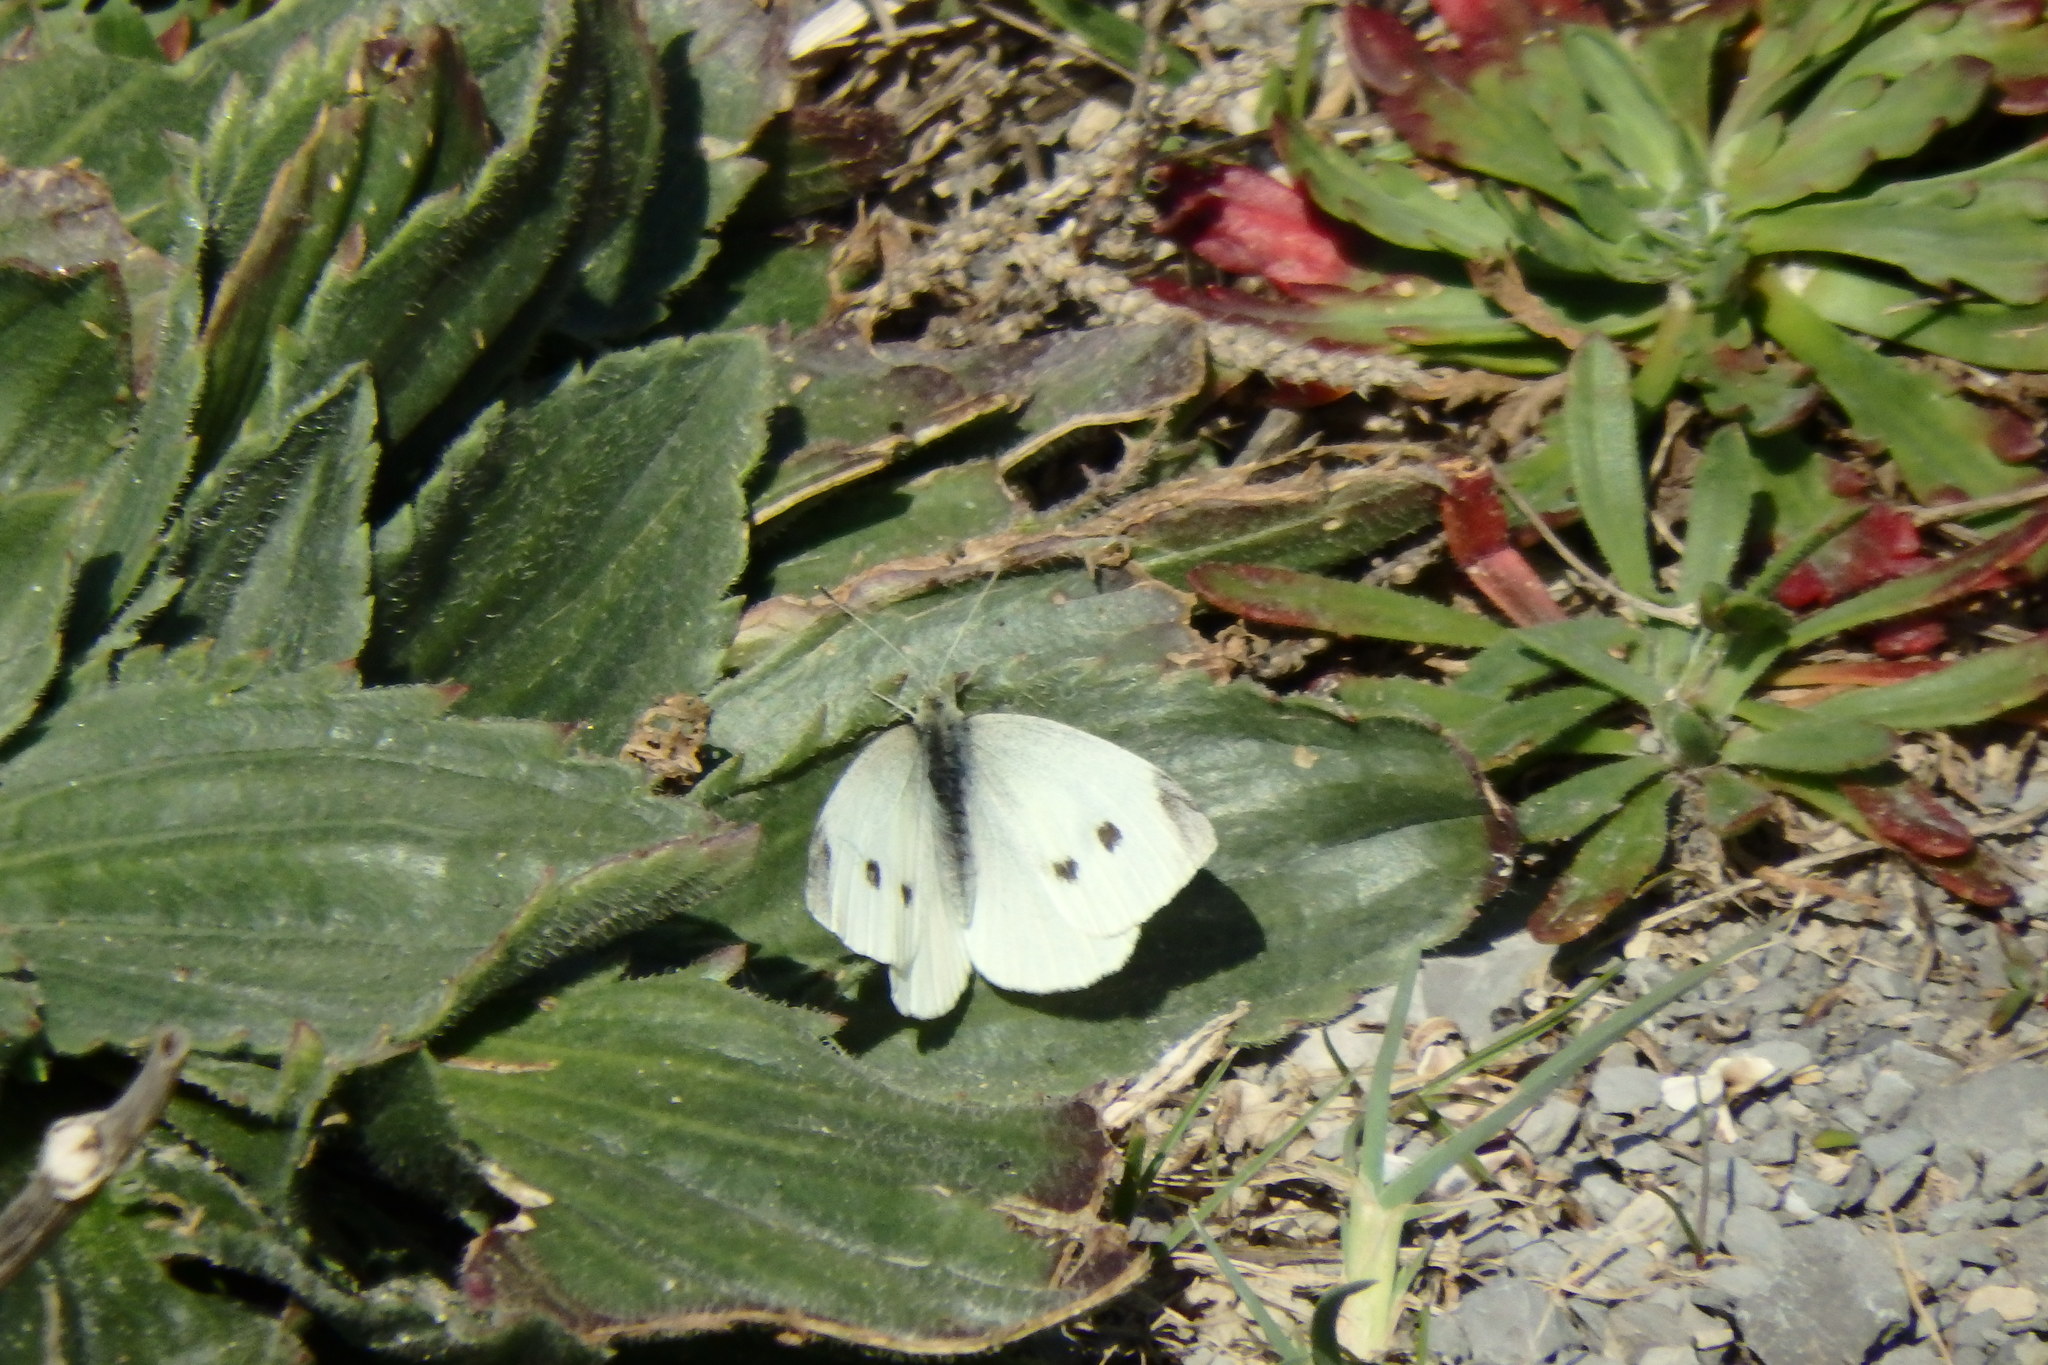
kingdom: Animalia
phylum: Arthropoda
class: Insecta
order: Lepidoptera
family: Pieridae
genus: Pieris
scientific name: Pieris rapae
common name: Small white
